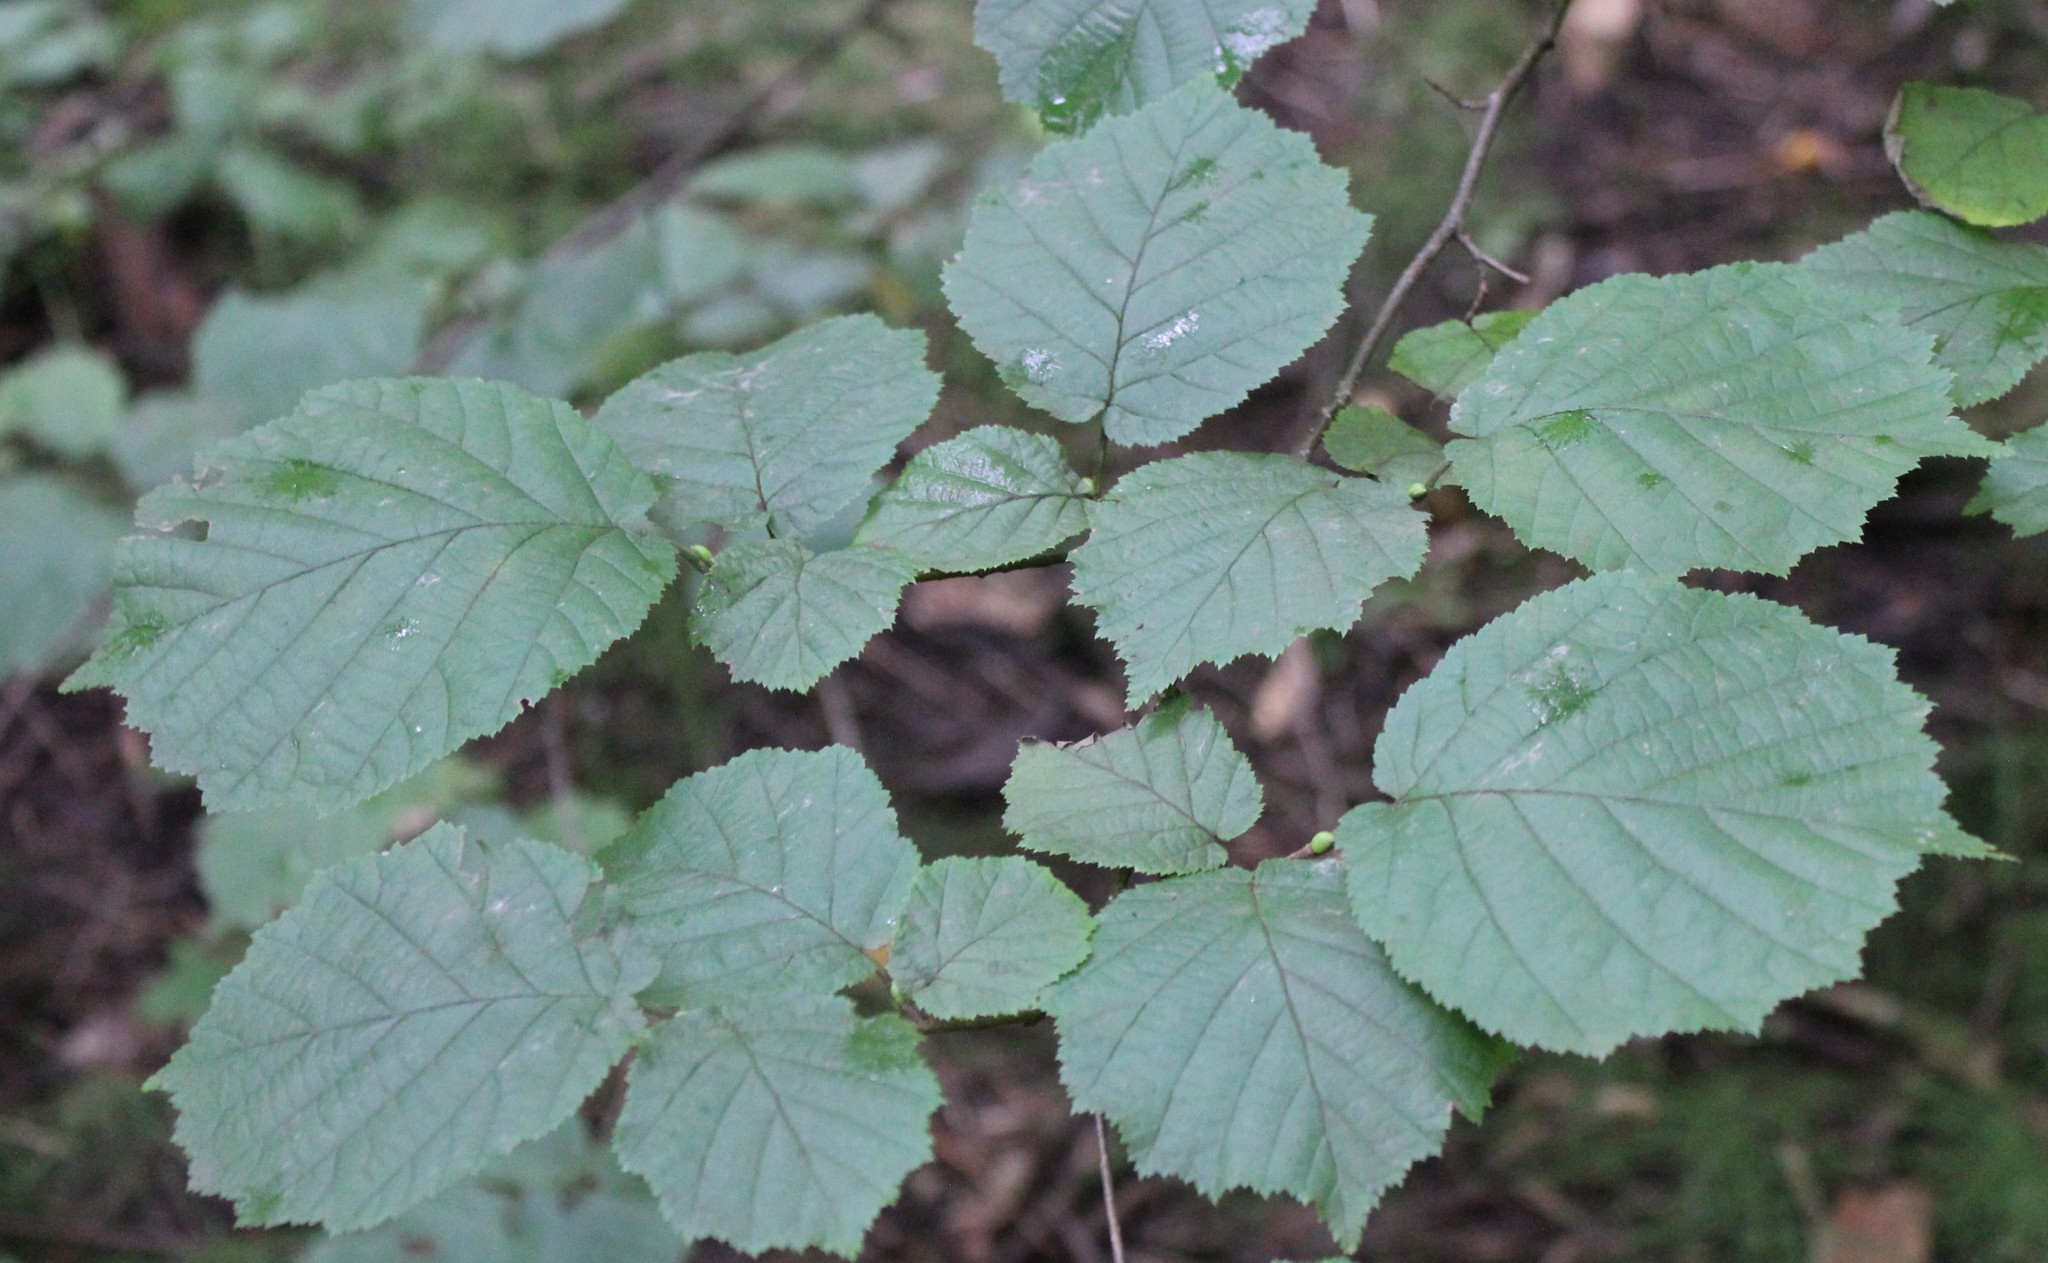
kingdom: Plantae
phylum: Tracheophyta
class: Magnoliopsida
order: Fagales
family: Betulaceae
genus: Corylus
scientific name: Corylus avellana
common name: European hazel
